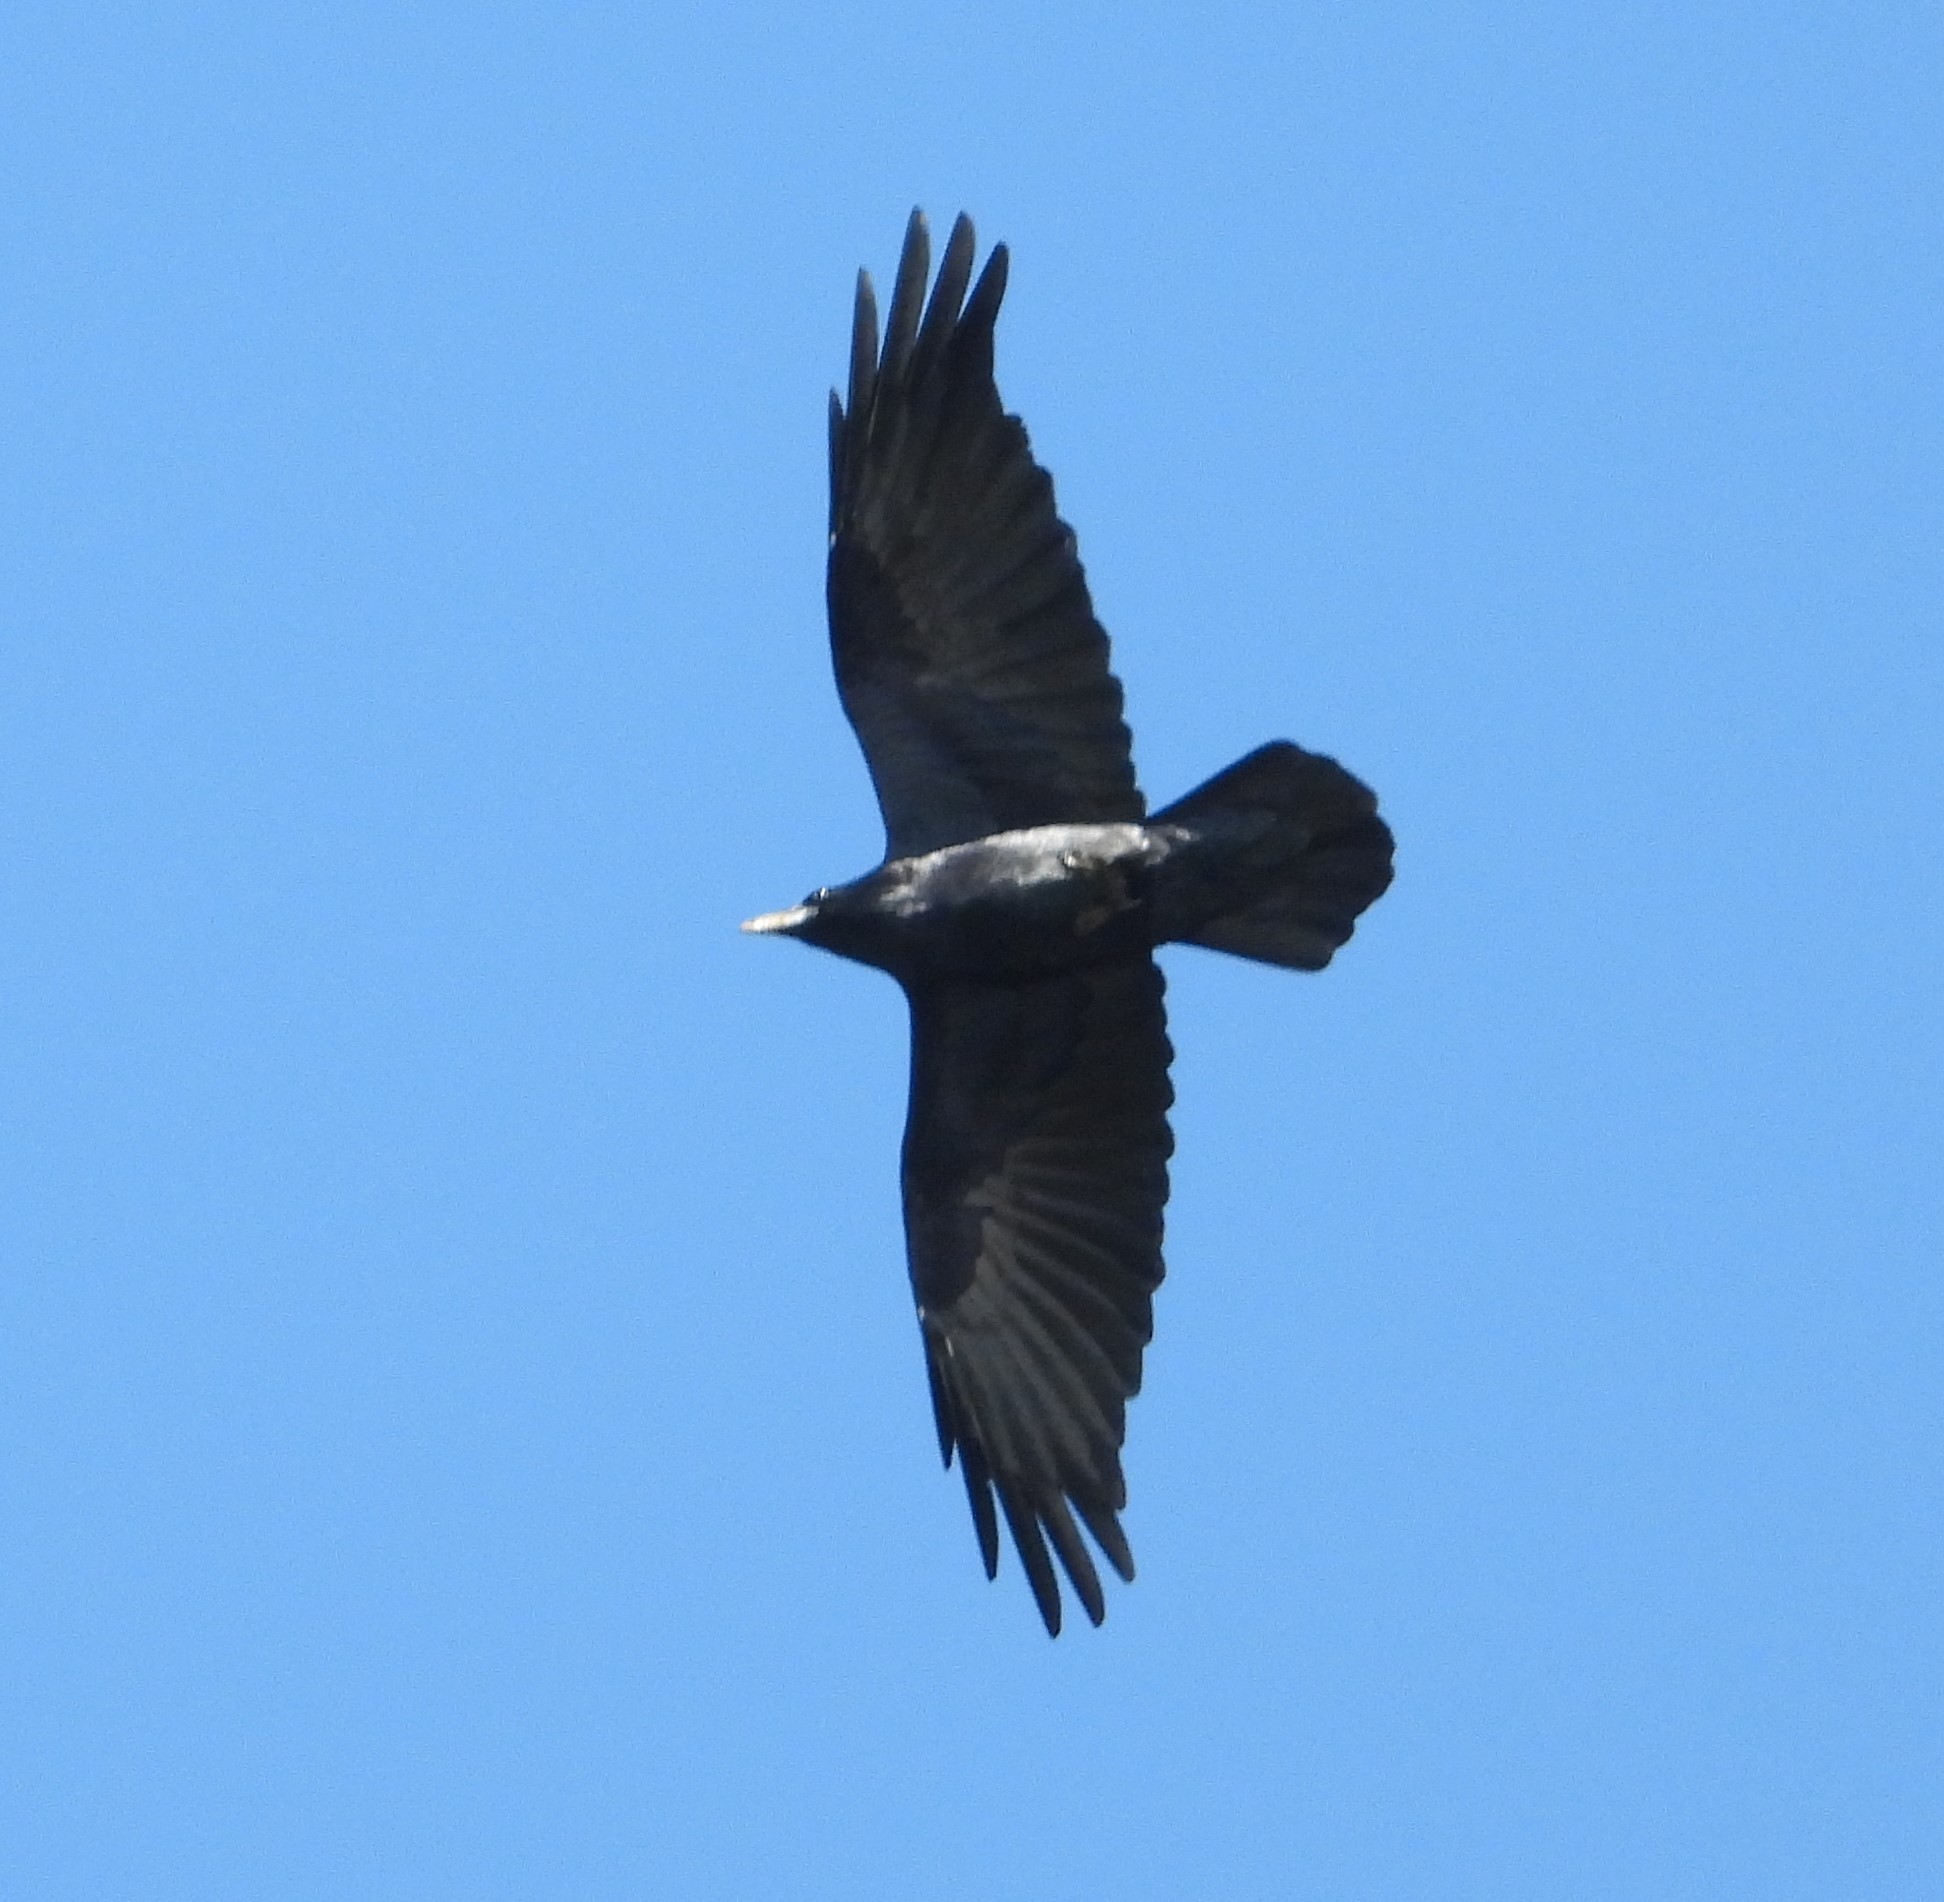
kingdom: Animalia
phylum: Chordata
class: Aves
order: Passeriformes
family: Corvidae
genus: Corvus
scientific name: Corvus corax
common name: Common raven
